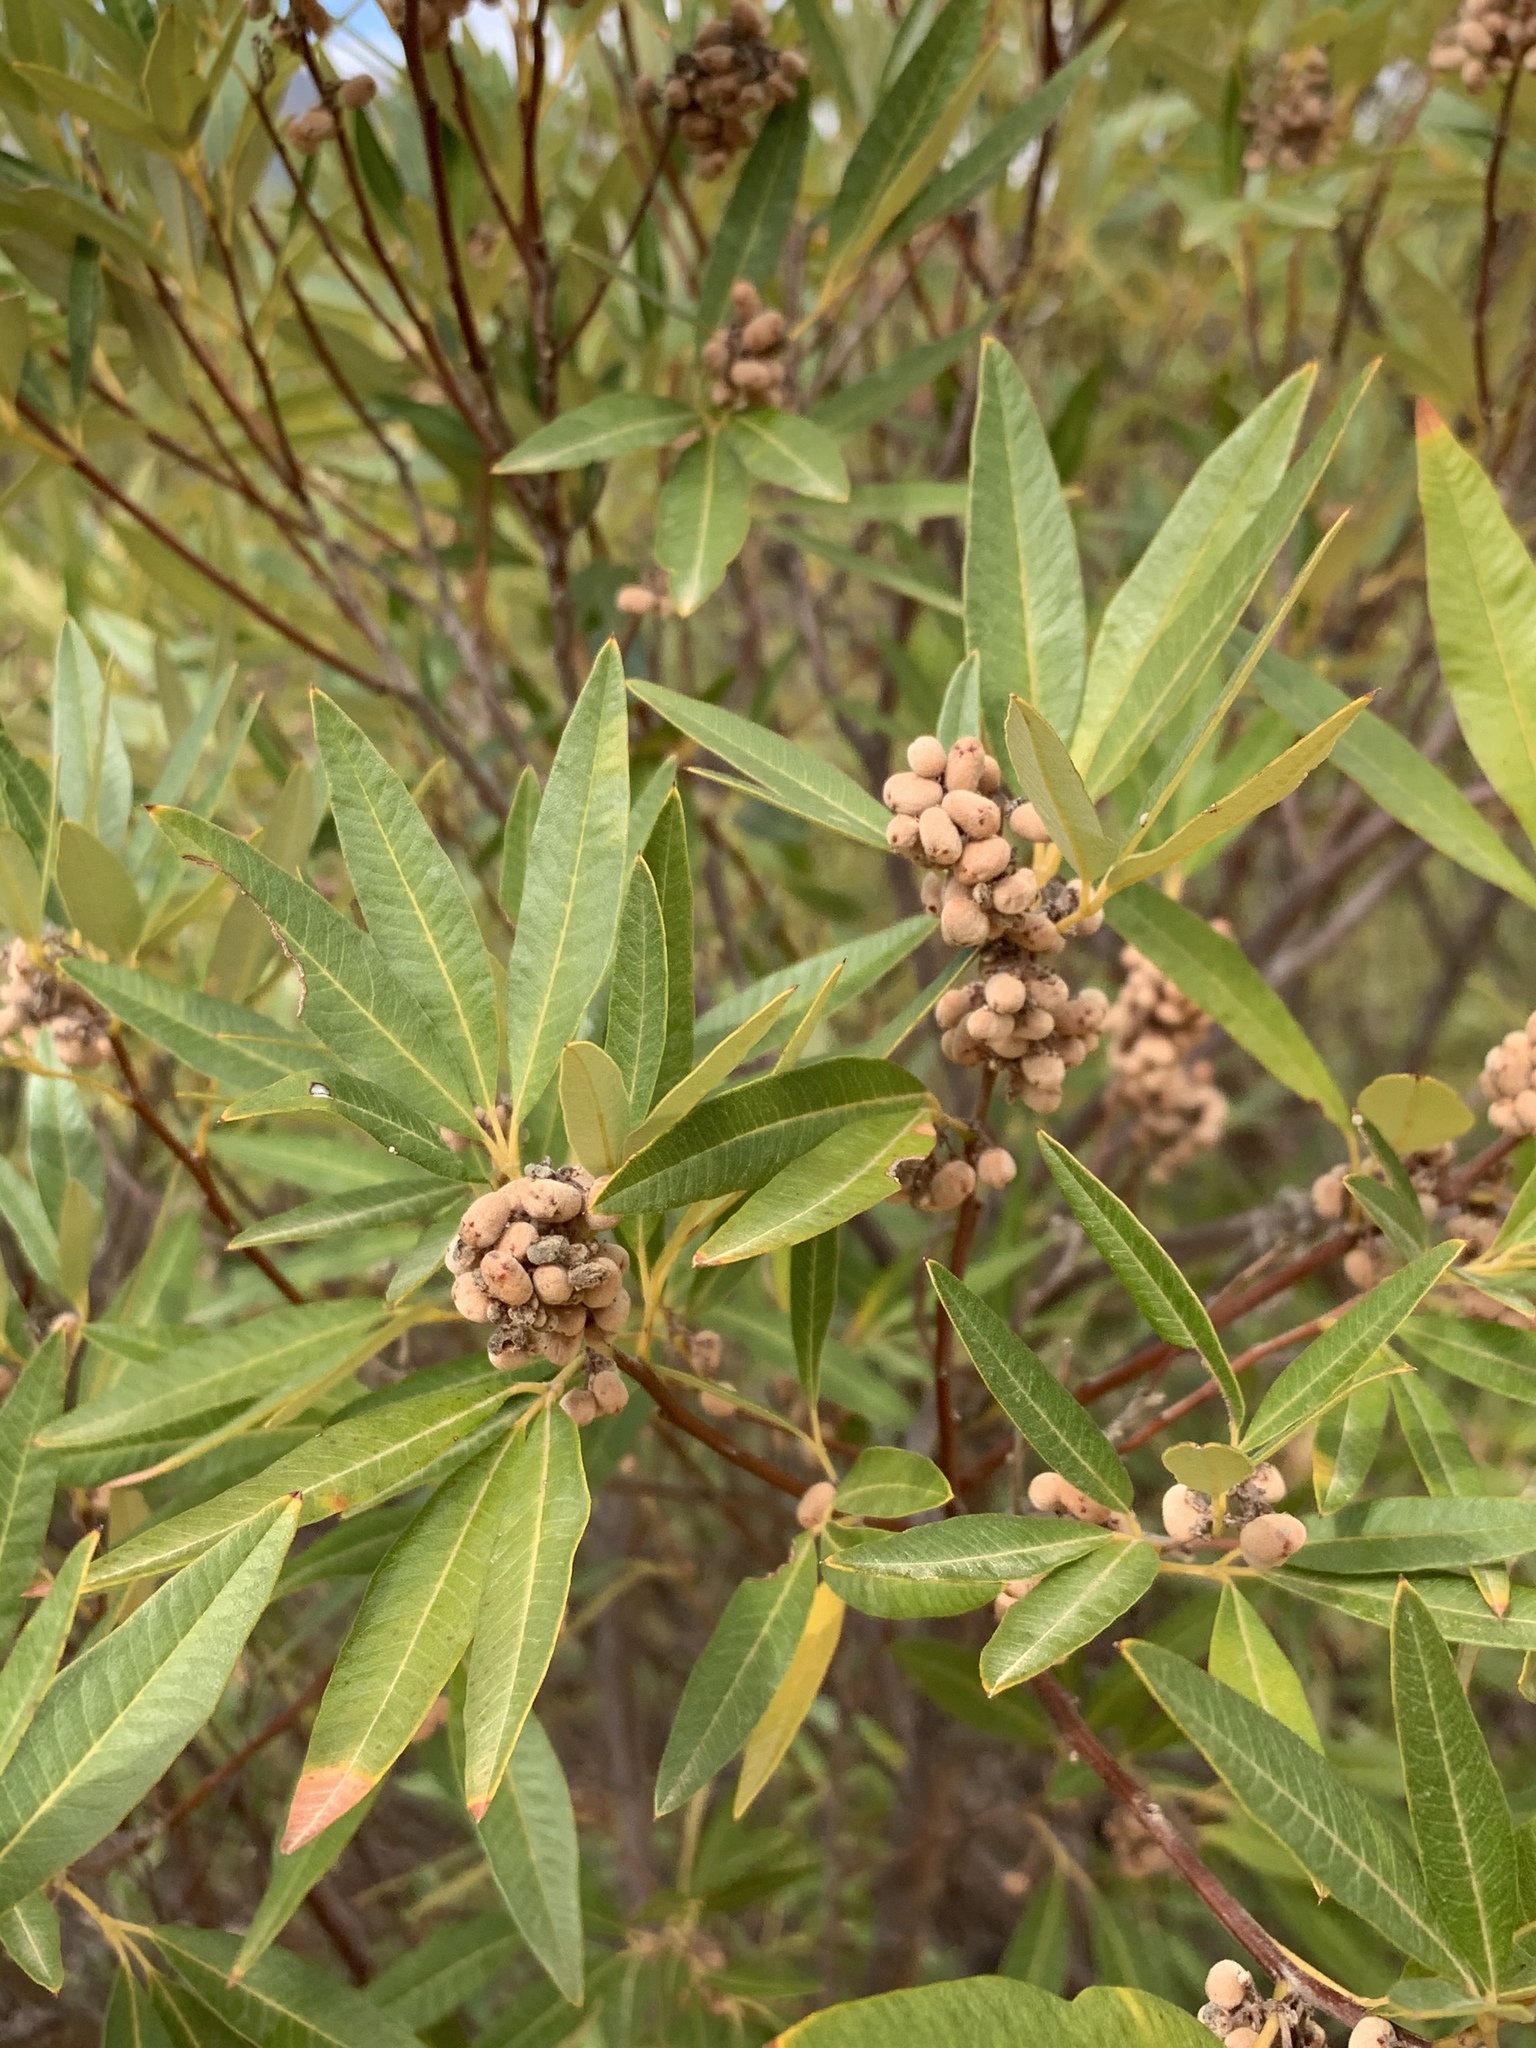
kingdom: Plantae
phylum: Tracheophyta
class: Magnoliopsida
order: Sapindales
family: Anacardiaceae
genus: Searsia
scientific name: Searsia angustifolia
